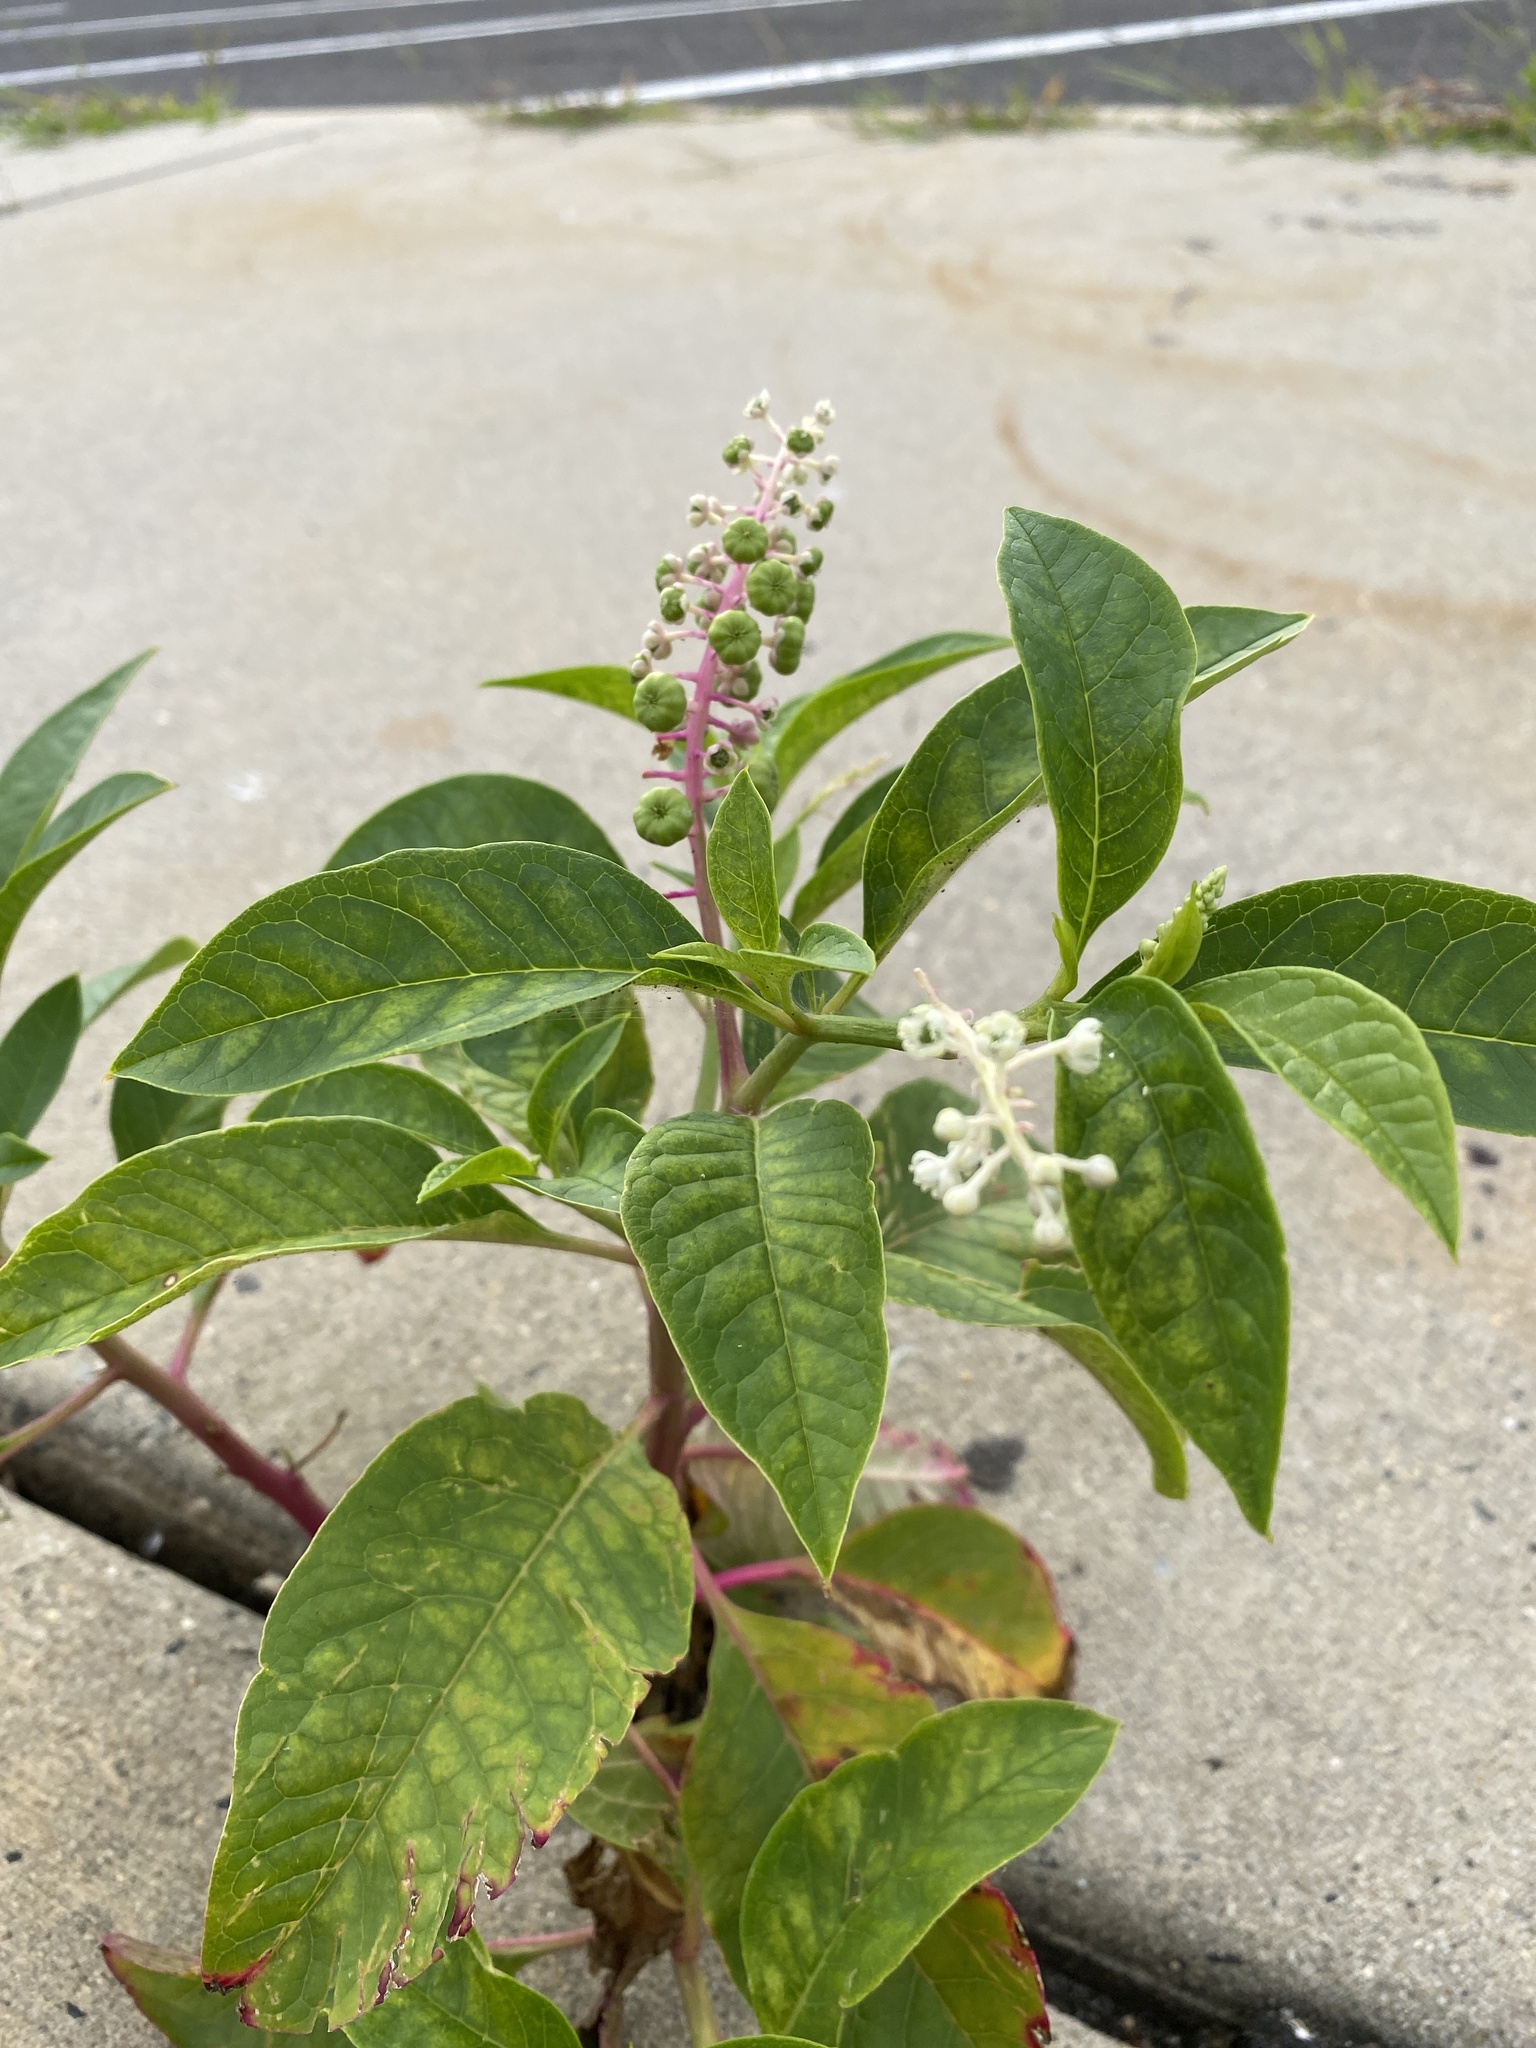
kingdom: Plantae
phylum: Tracheophyta
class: Magnoliopsida
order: Caryophyllales
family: Phytolaccaceae
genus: Phytolacca
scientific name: Phytolacca americana
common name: American pokeweed
